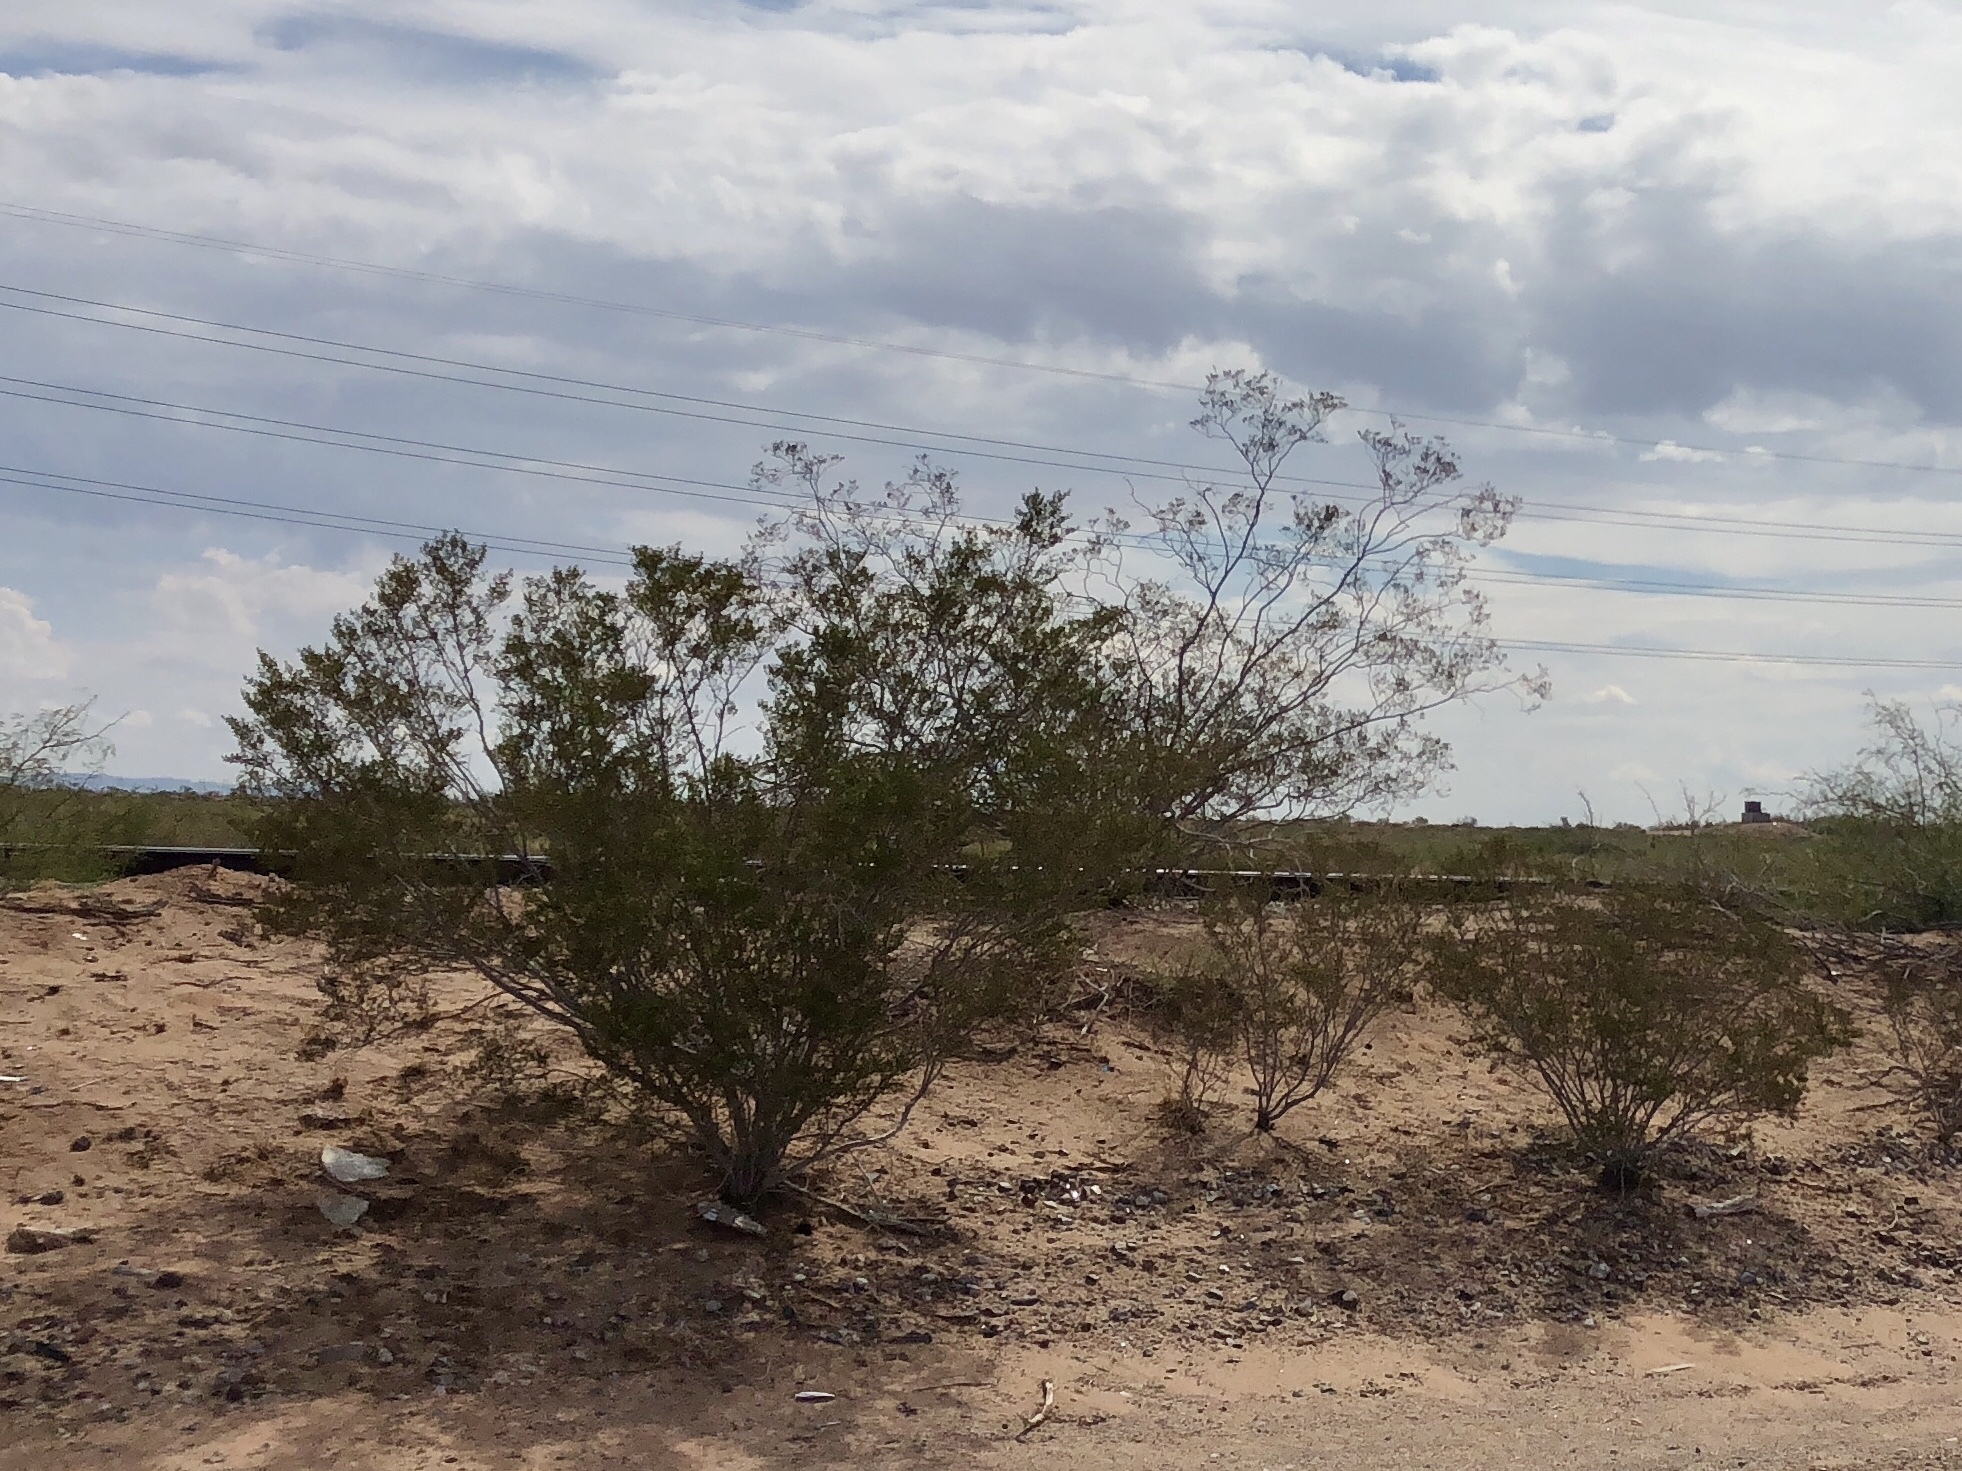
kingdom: Plantae
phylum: Tracheophyta
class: Magnoliopsida
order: Zygophyllales
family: Zygophyllaceae
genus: Larrea
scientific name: Larrea tridentata
